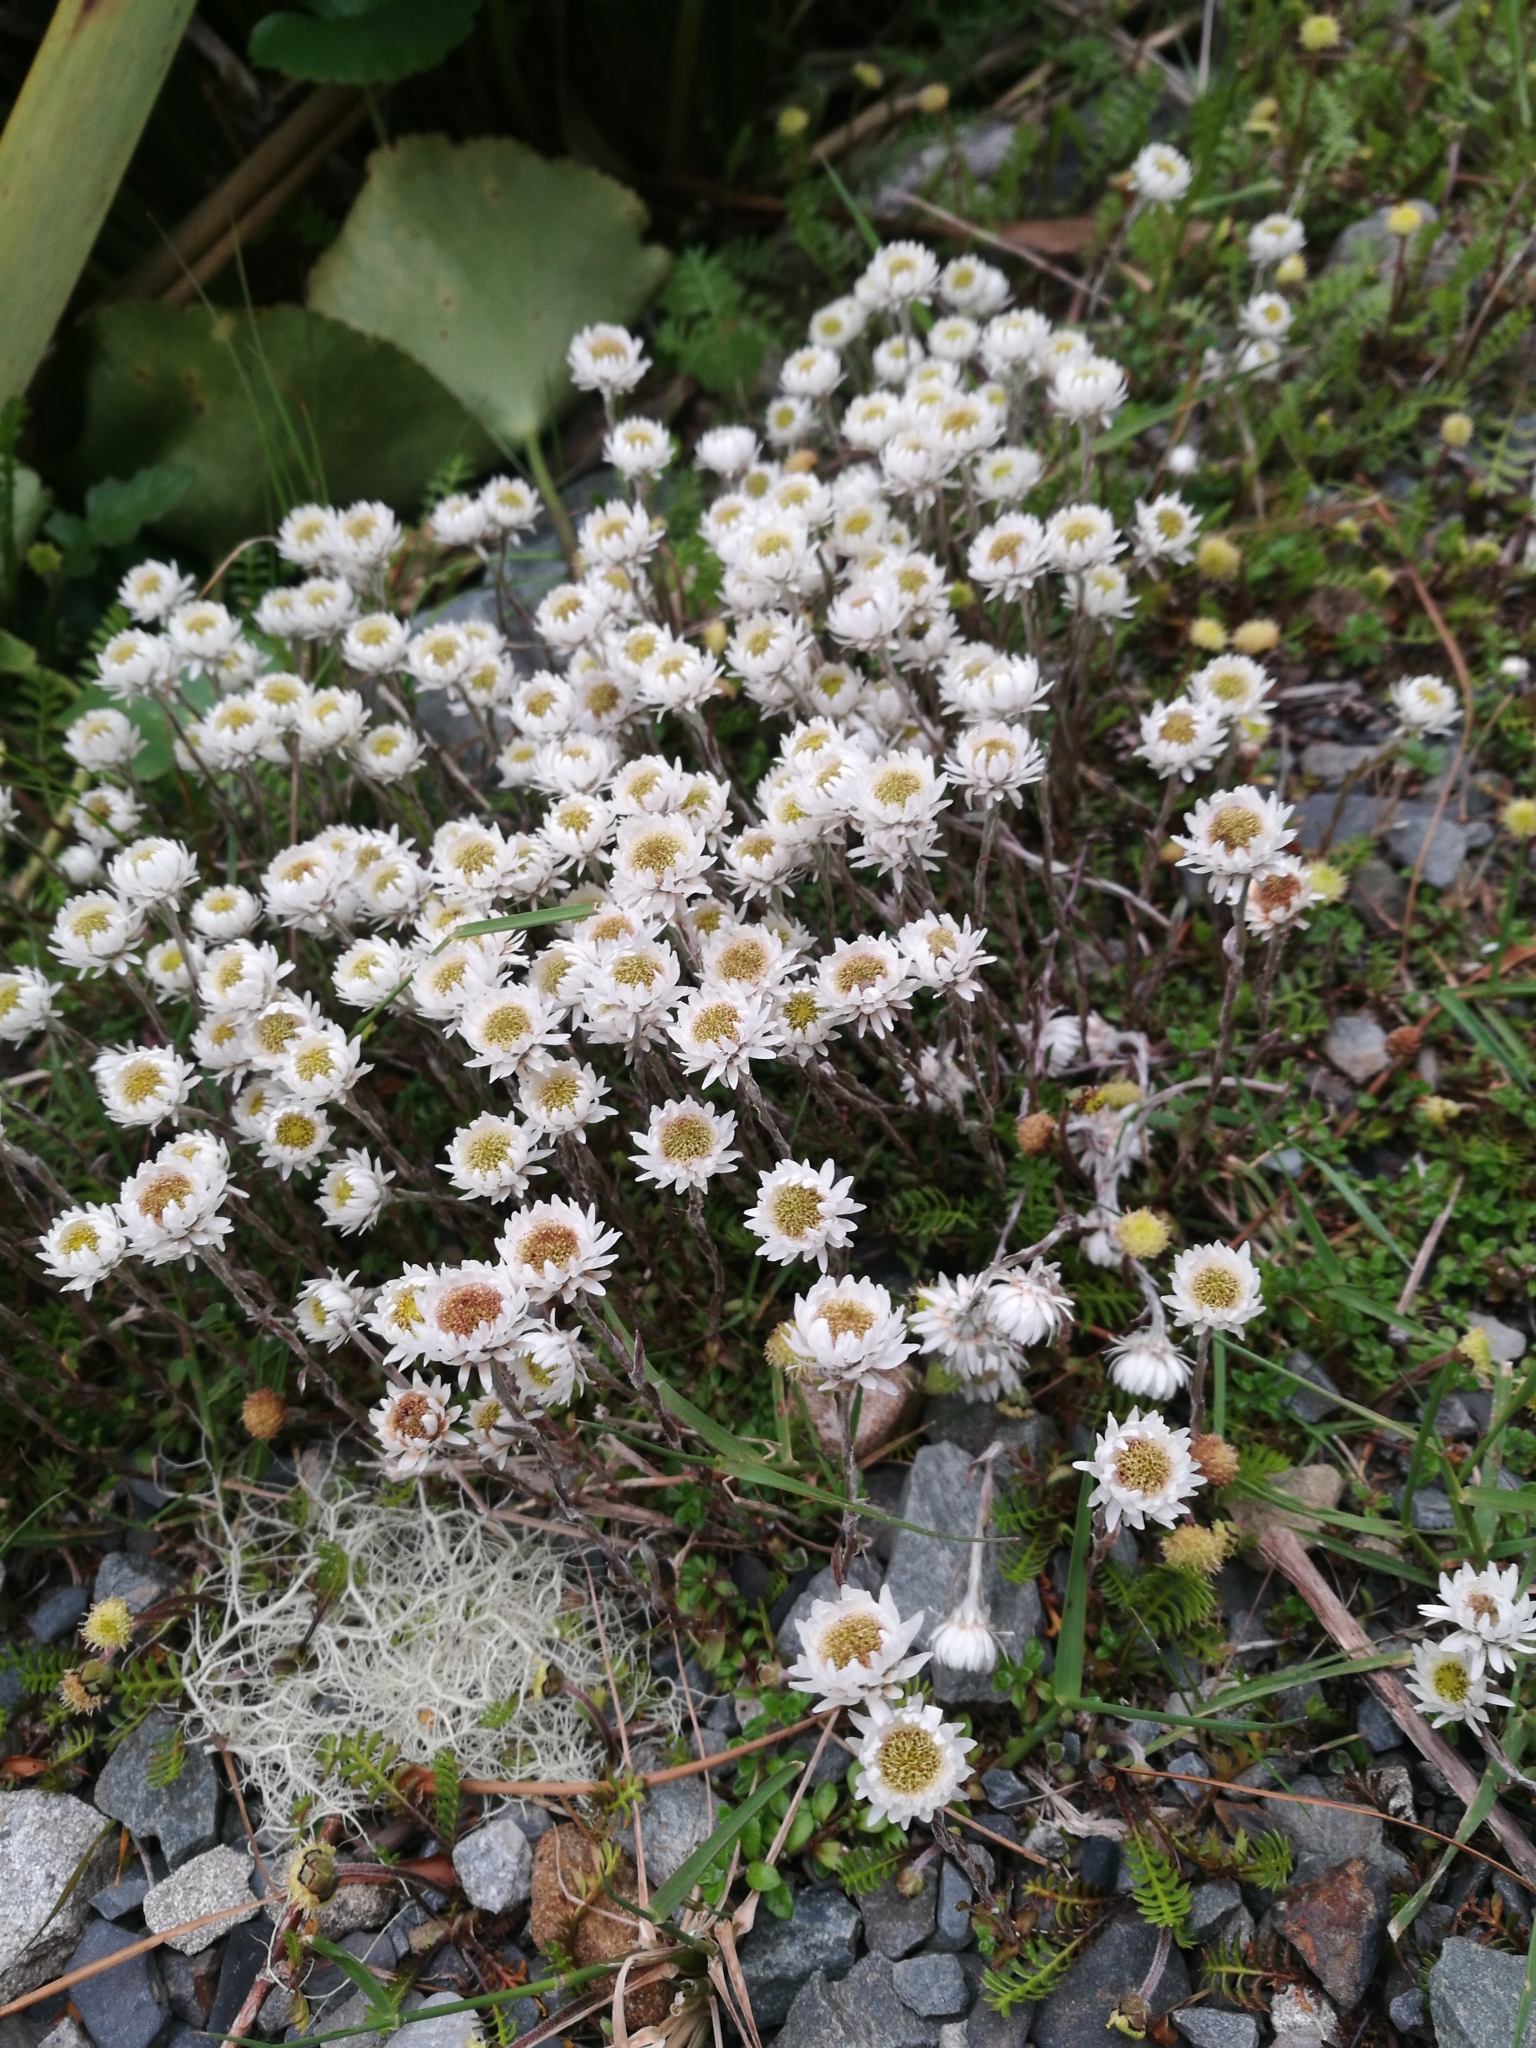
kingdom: Plantae
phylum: Tracheophyta
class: Magnoliopsida
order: Asterales
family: Asteraceae
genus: Anaphalioides
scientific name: Anaphalioides bellidioides
